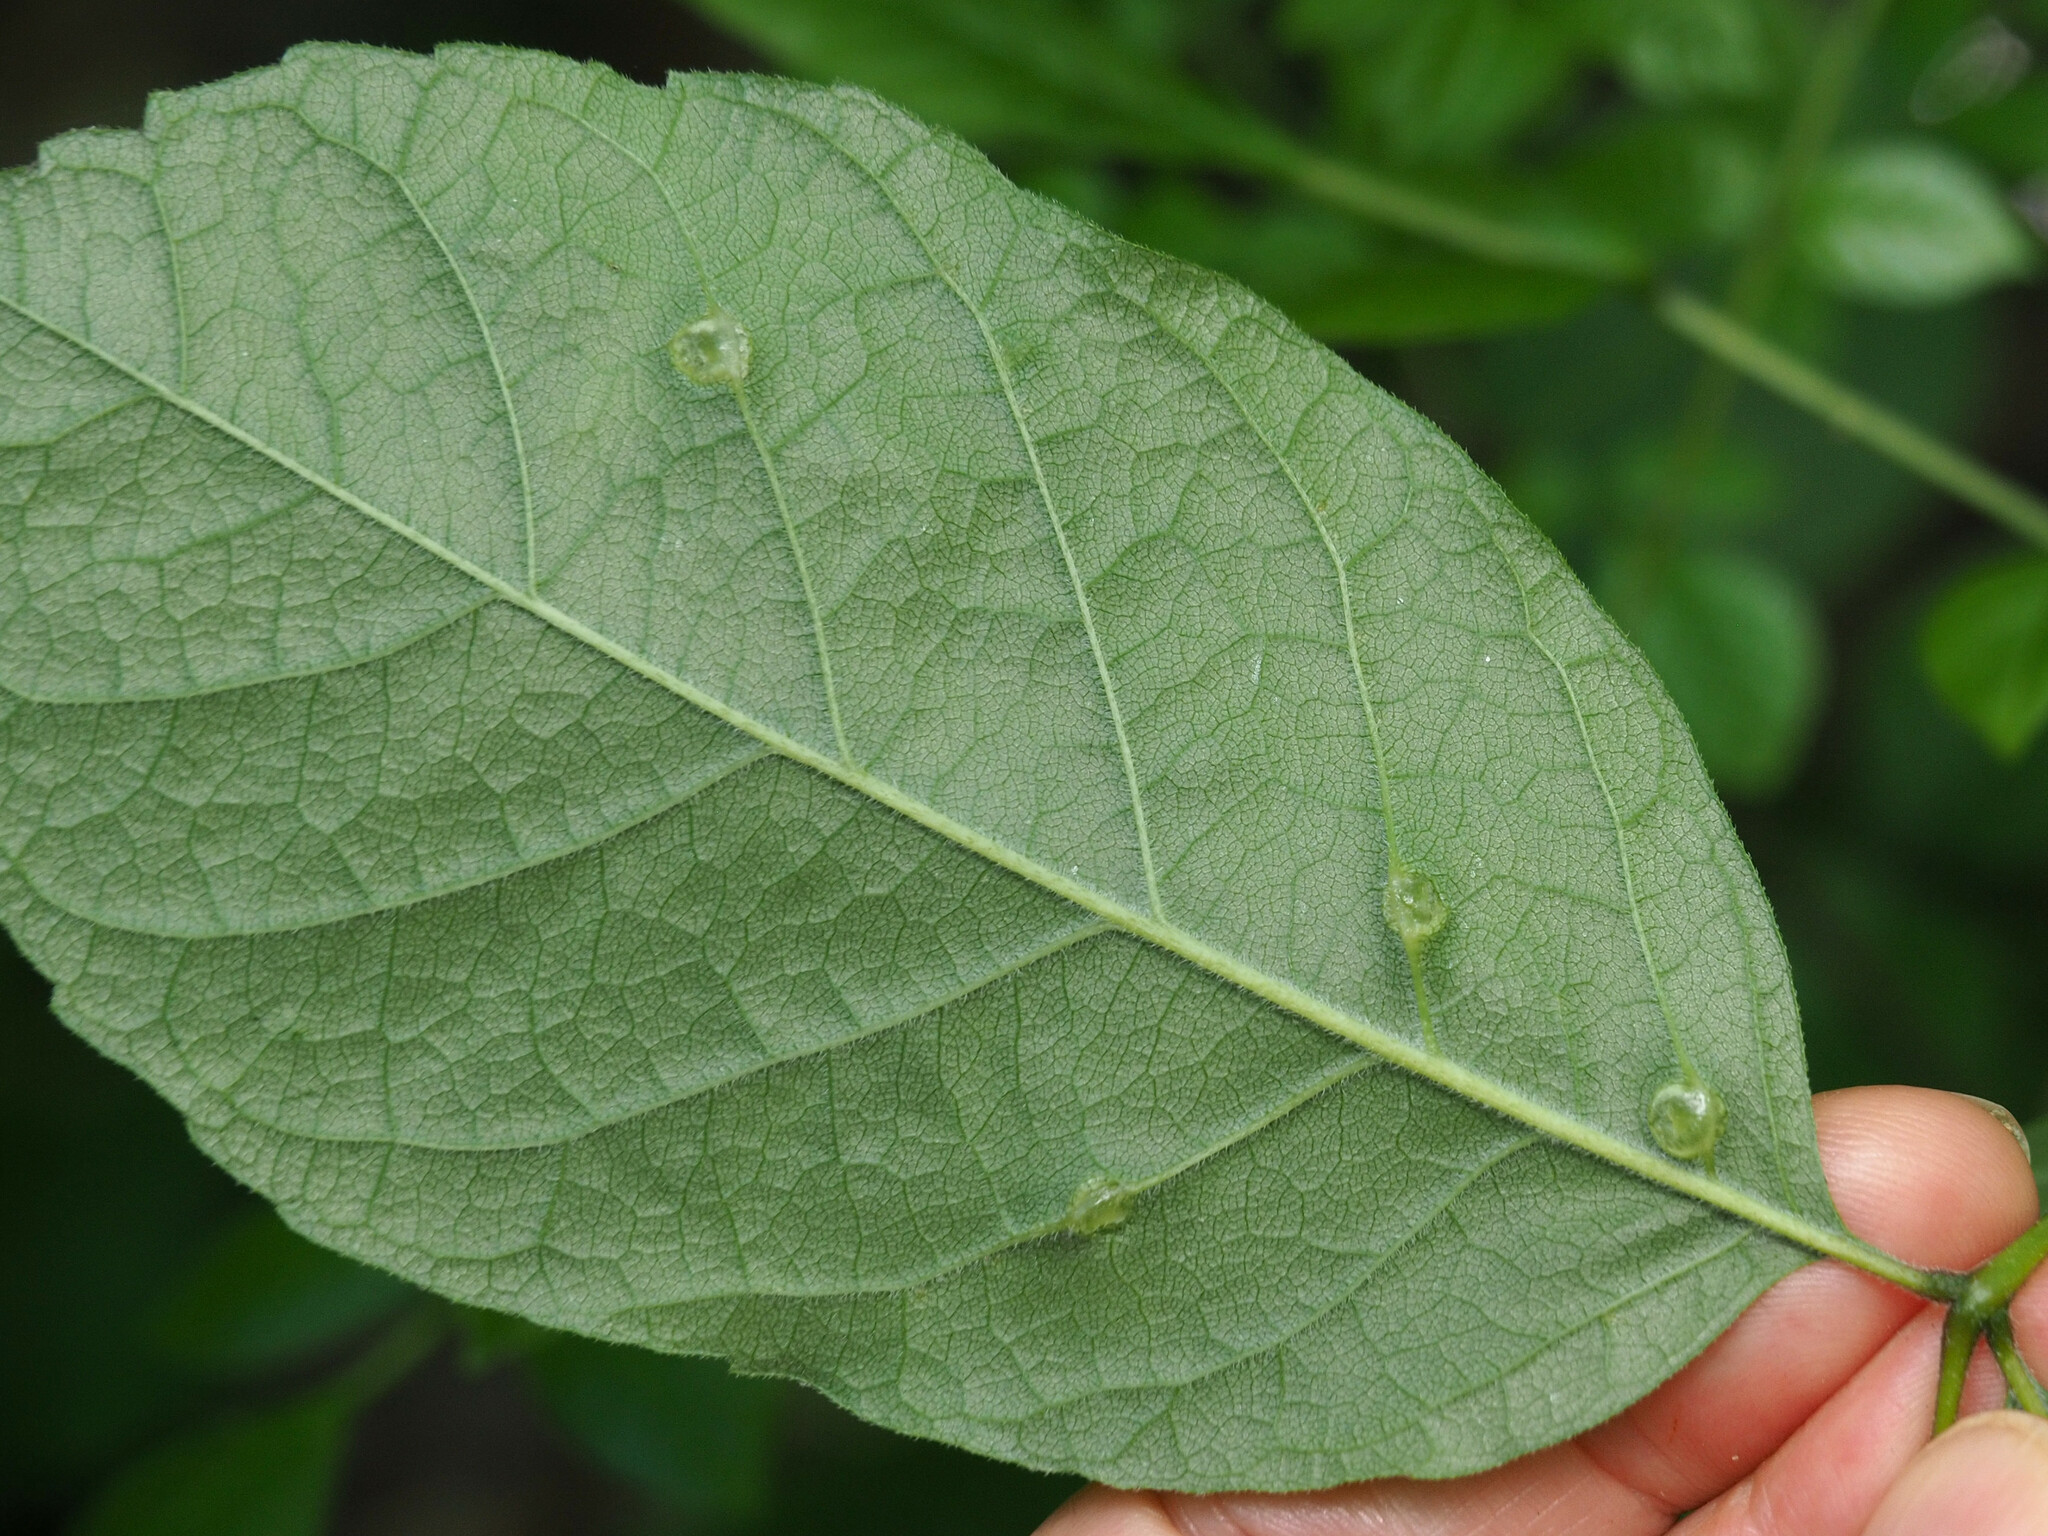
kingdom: Animalia
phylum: Arthropoda
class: Insecta
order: Diptera
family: Cecidomyiidae
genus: Dasineura
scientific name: Dasineura pellex
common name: Ash bullet gall midge
